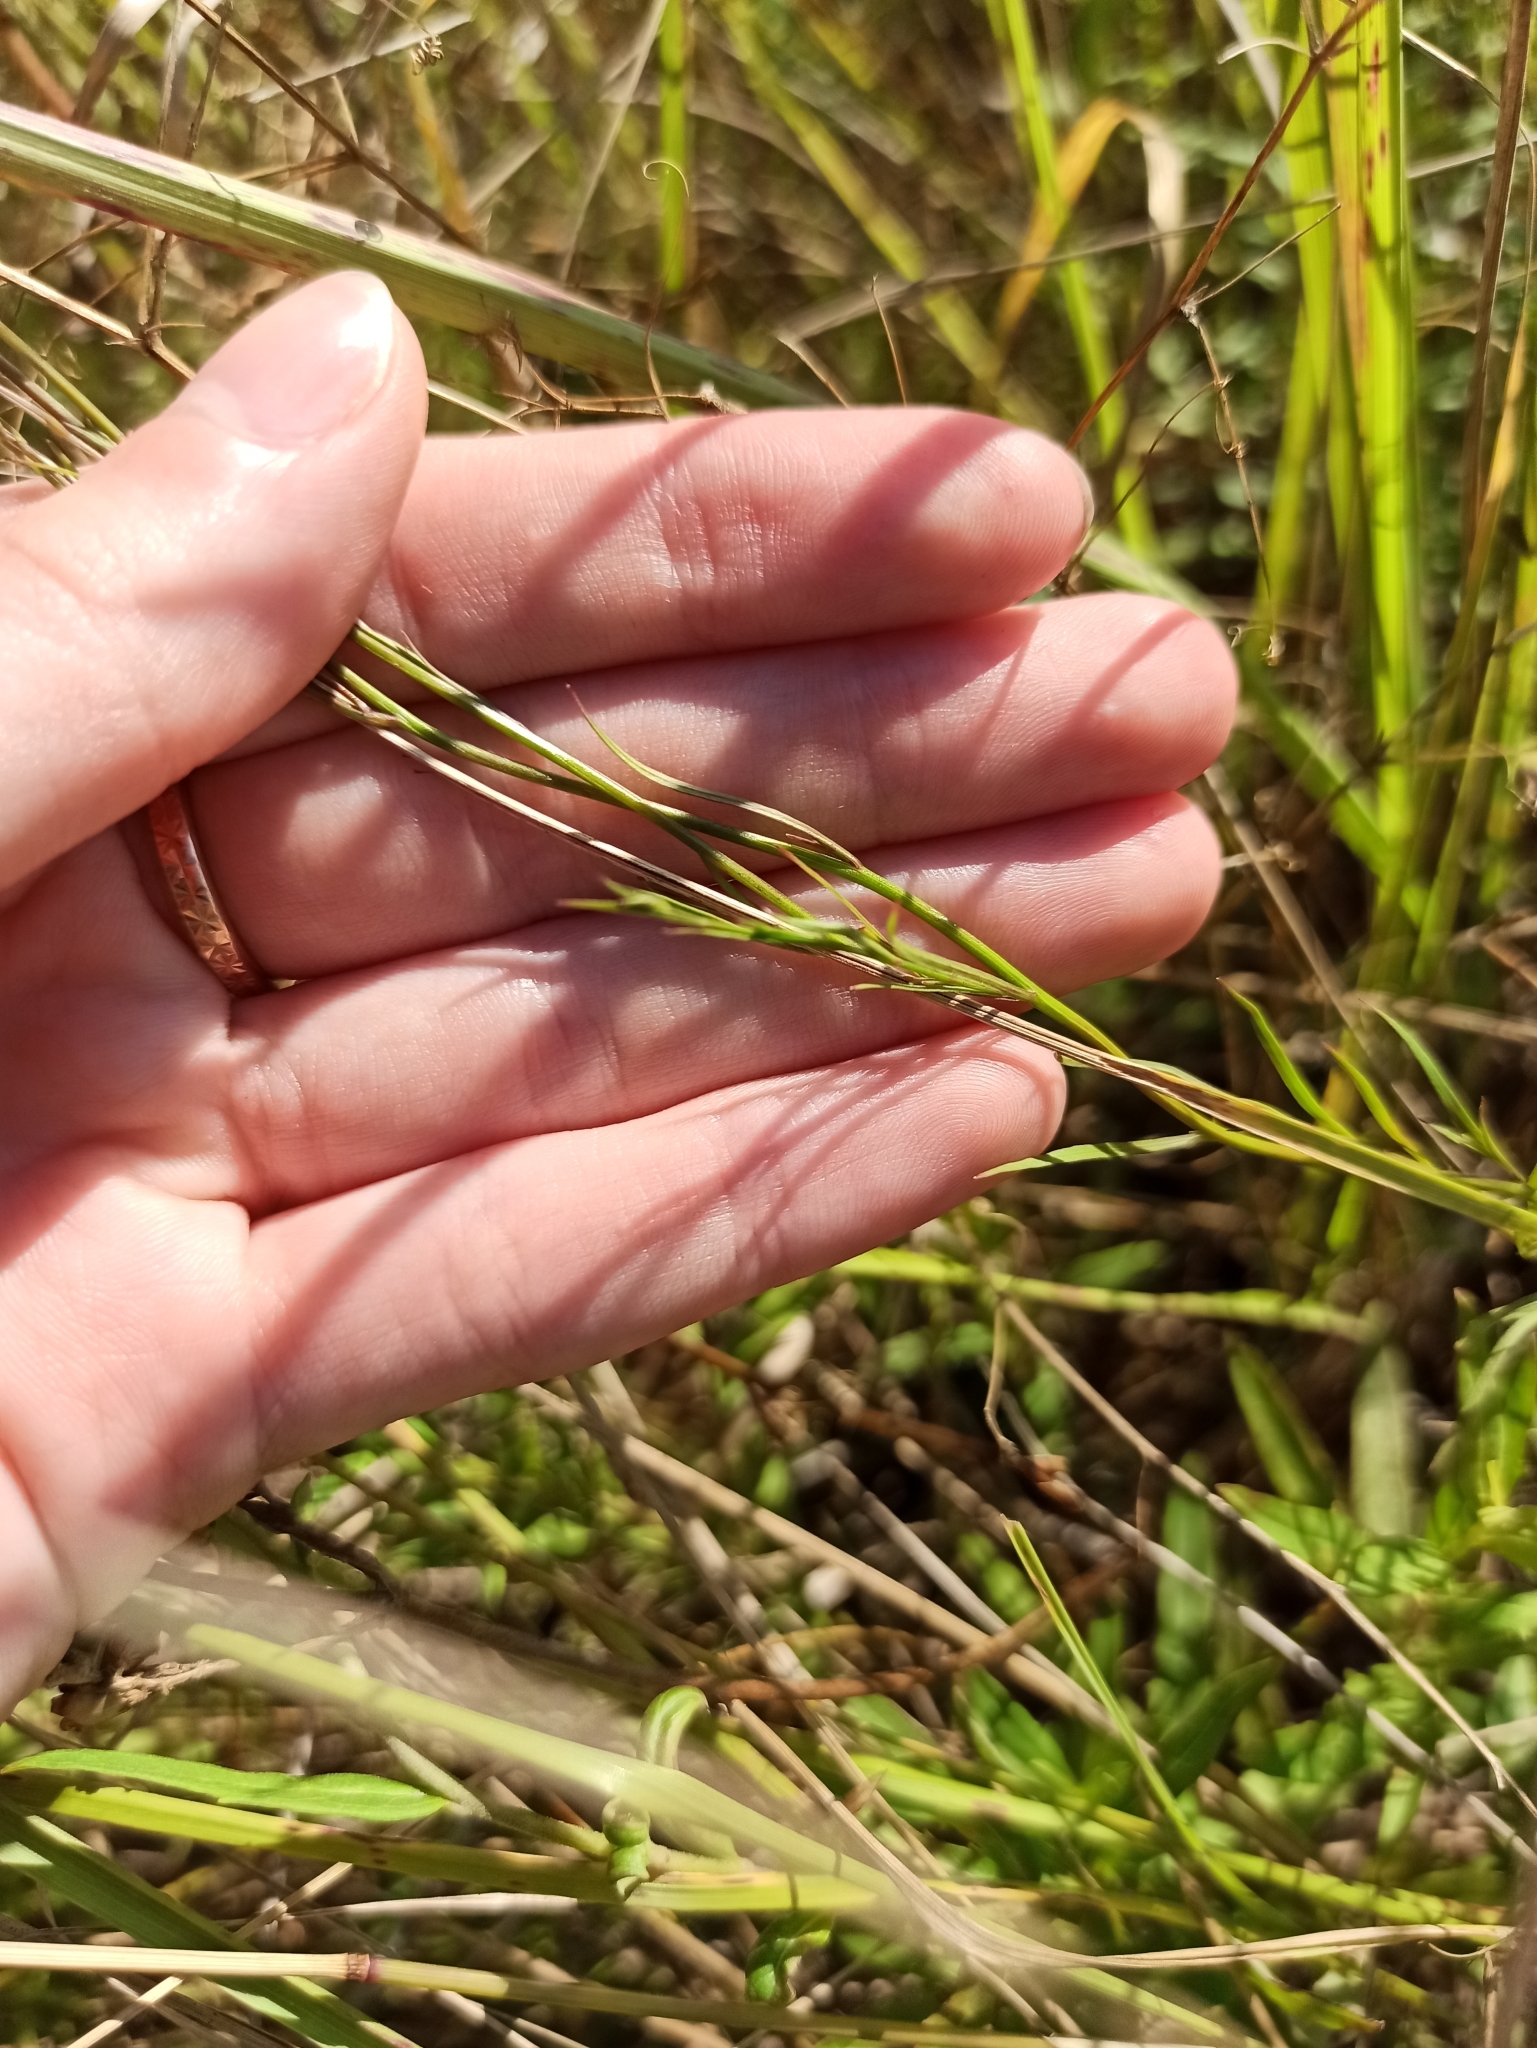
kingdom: Plantae
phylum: Tracheophyta
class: Magnoliopsida
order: Asterales
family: Campanulaceae
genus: Campanula
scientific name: Campanula rotundifolia
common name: Harebell
